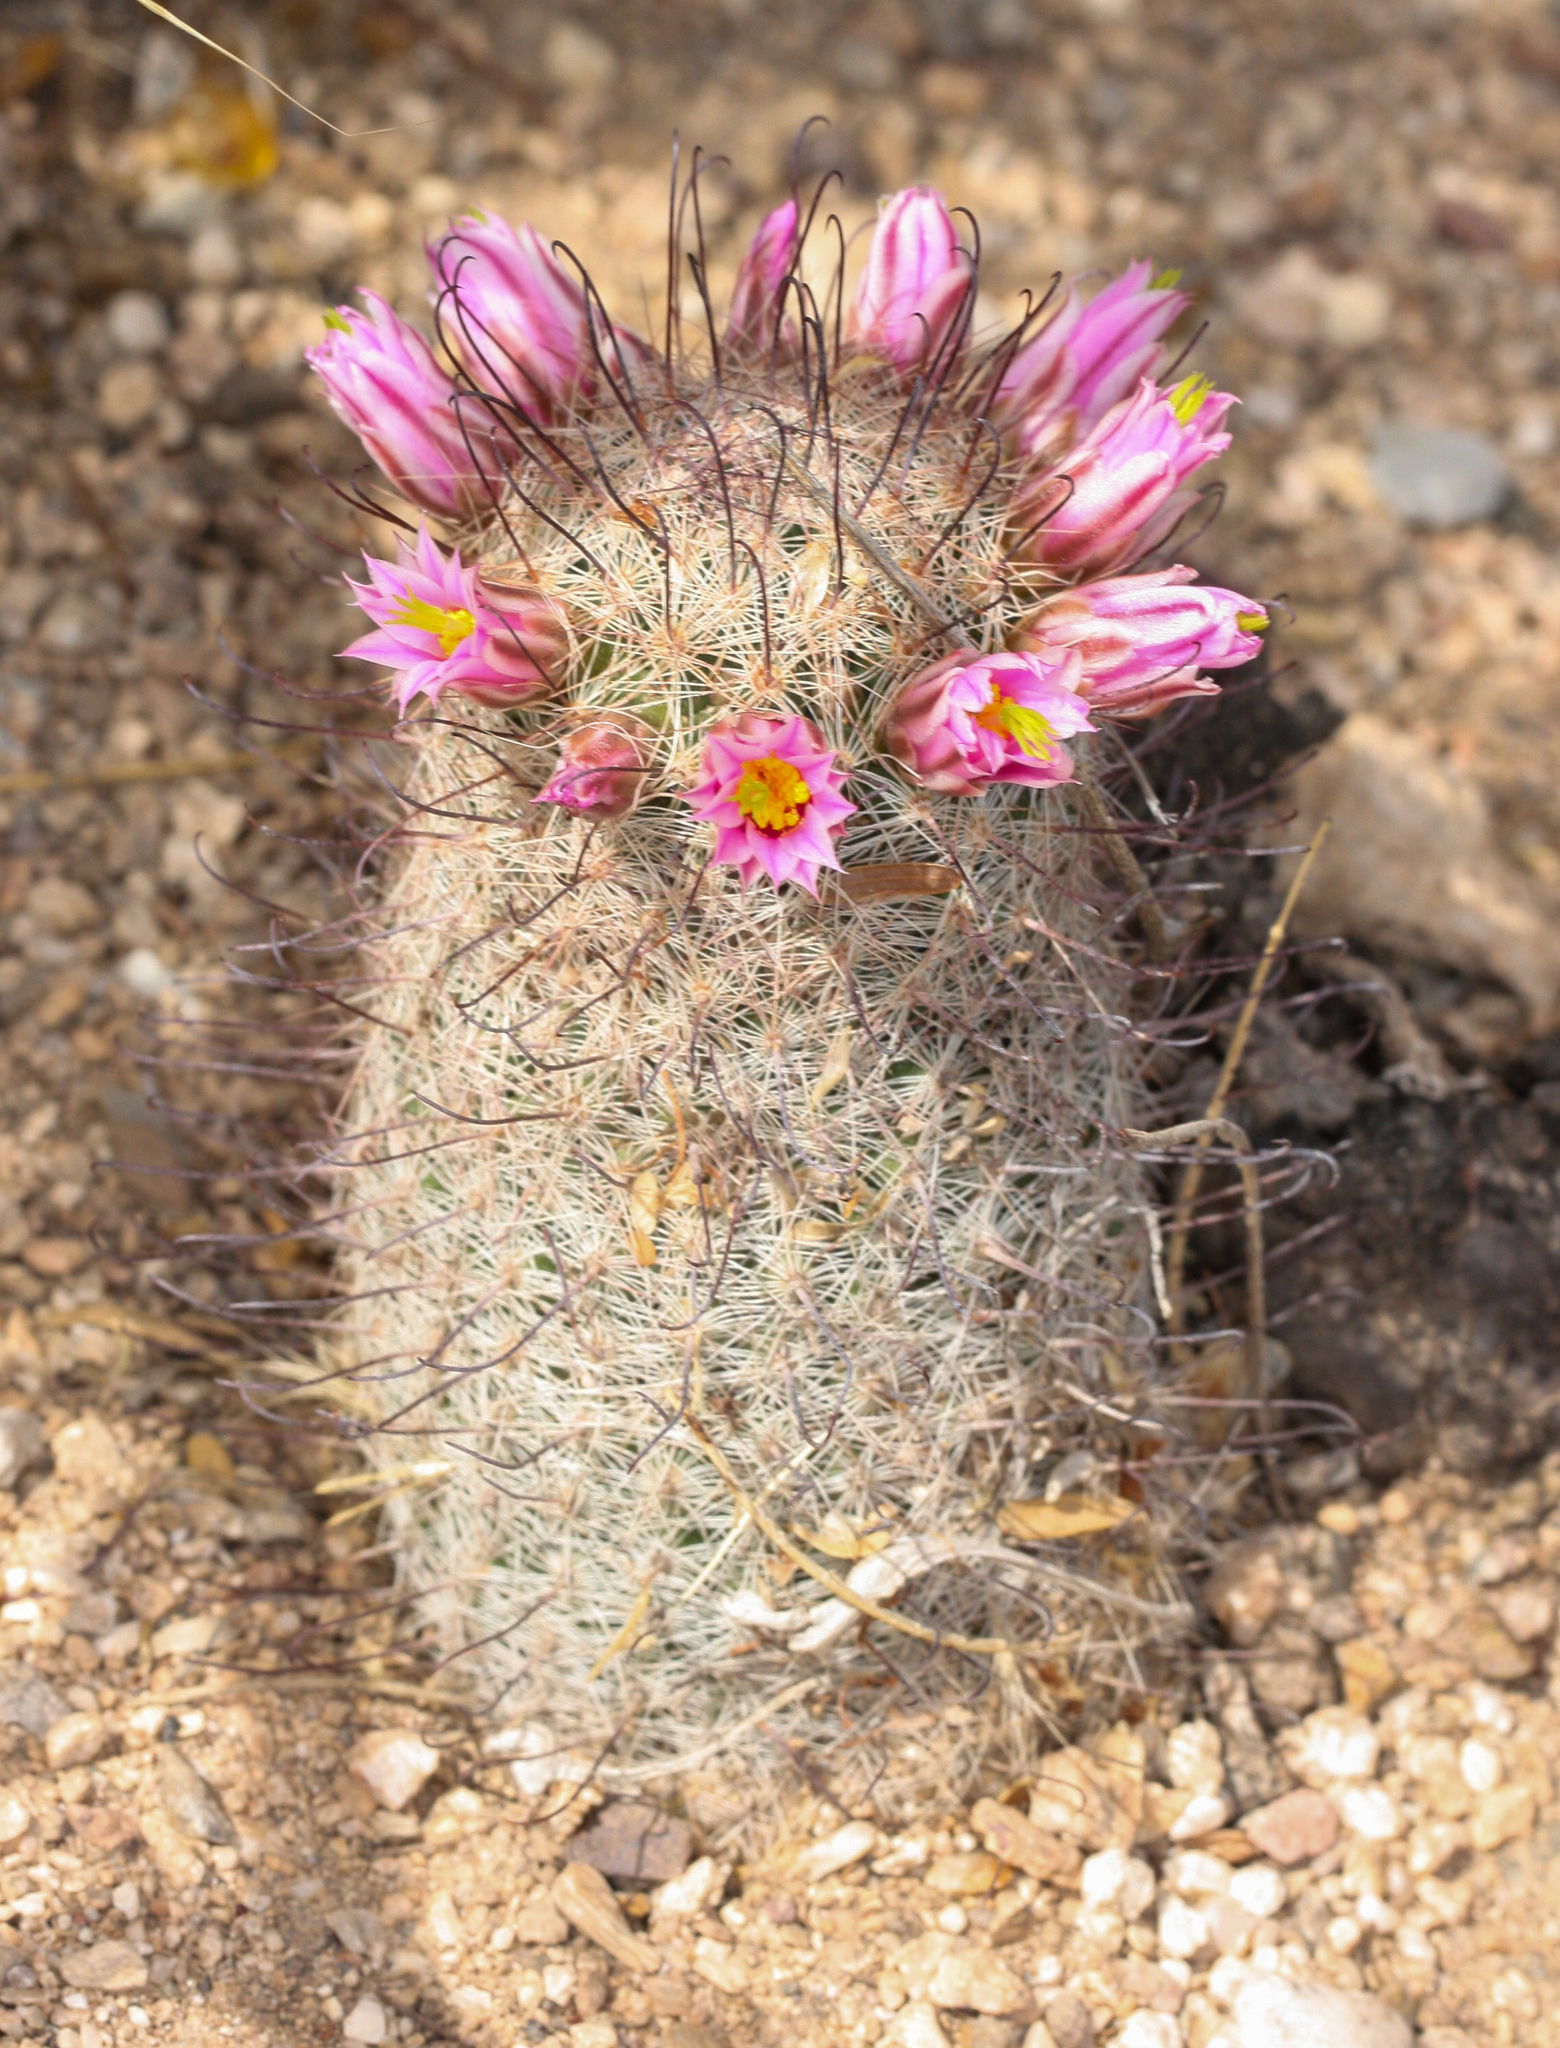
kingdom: Plantae
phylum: Tracheophyta
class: Magnoliopsida
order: Caryophyllales
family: Cactaceae
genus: Cochemiea
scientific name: Cochemiea grahamii
